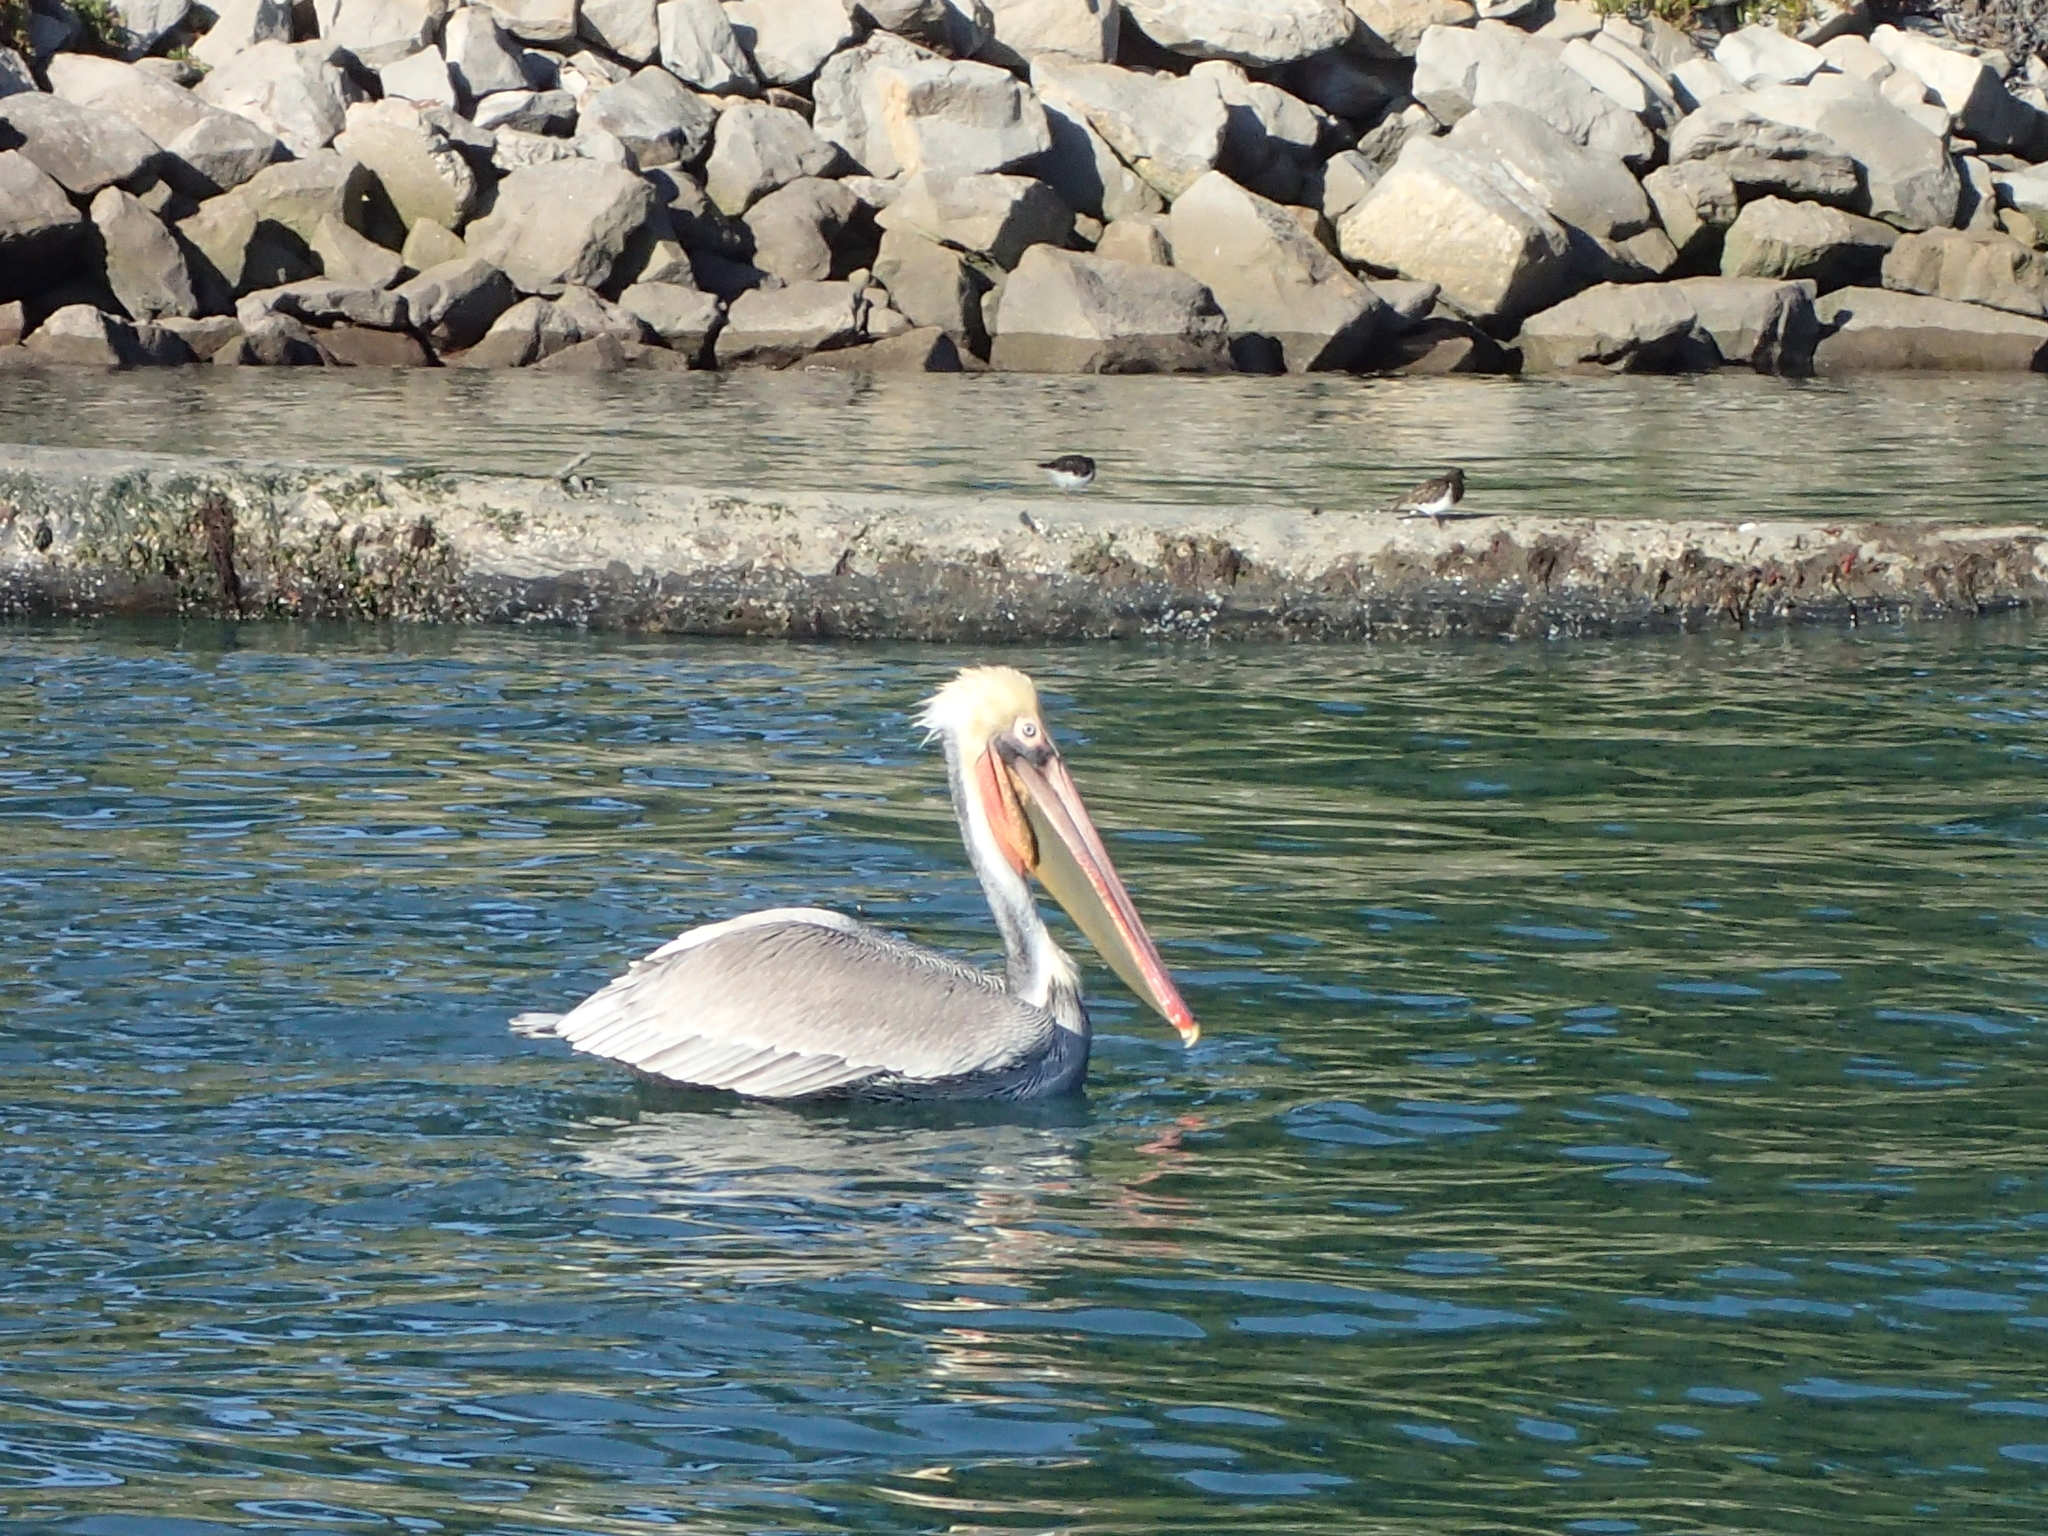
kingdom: Animalia
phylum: Chordata
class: Aves
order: Pelecaniformes
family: Pelecanidae
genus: Pelecanus
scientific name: Pelecanus occidentalis
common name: Brown pelican
